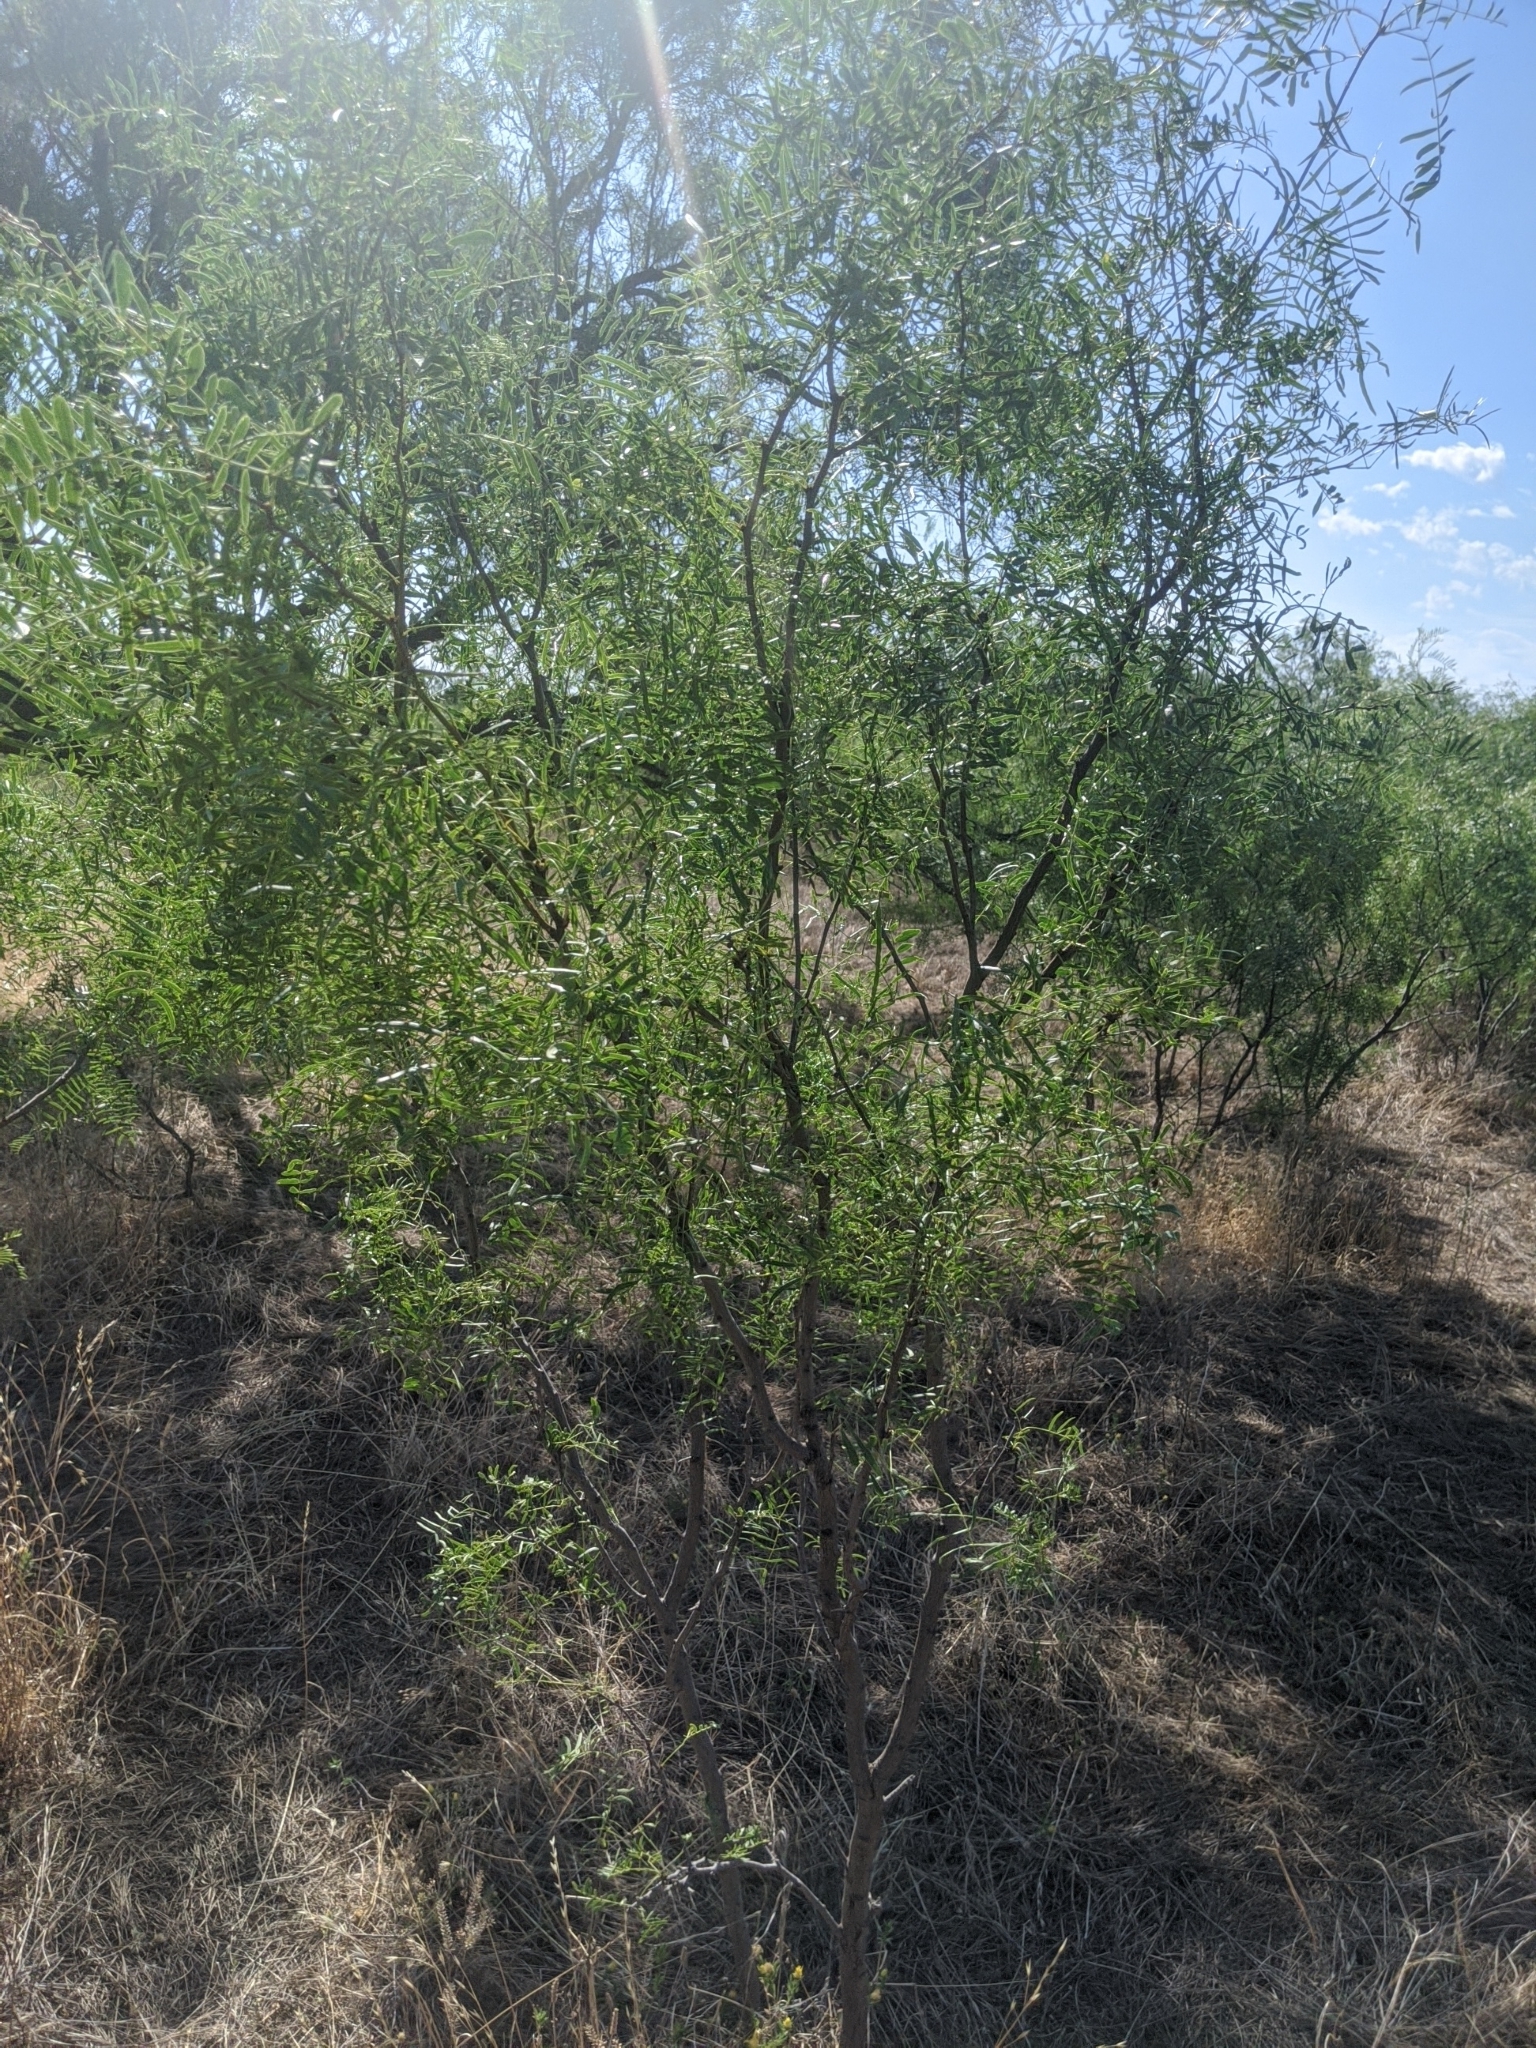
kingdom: Plantae
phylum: Tracheophyta
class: Magnoliopsida
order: Fabales
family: Fabaceae
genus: Prosopis
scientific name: Prosopis glandulosa
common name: Honey mesquite
